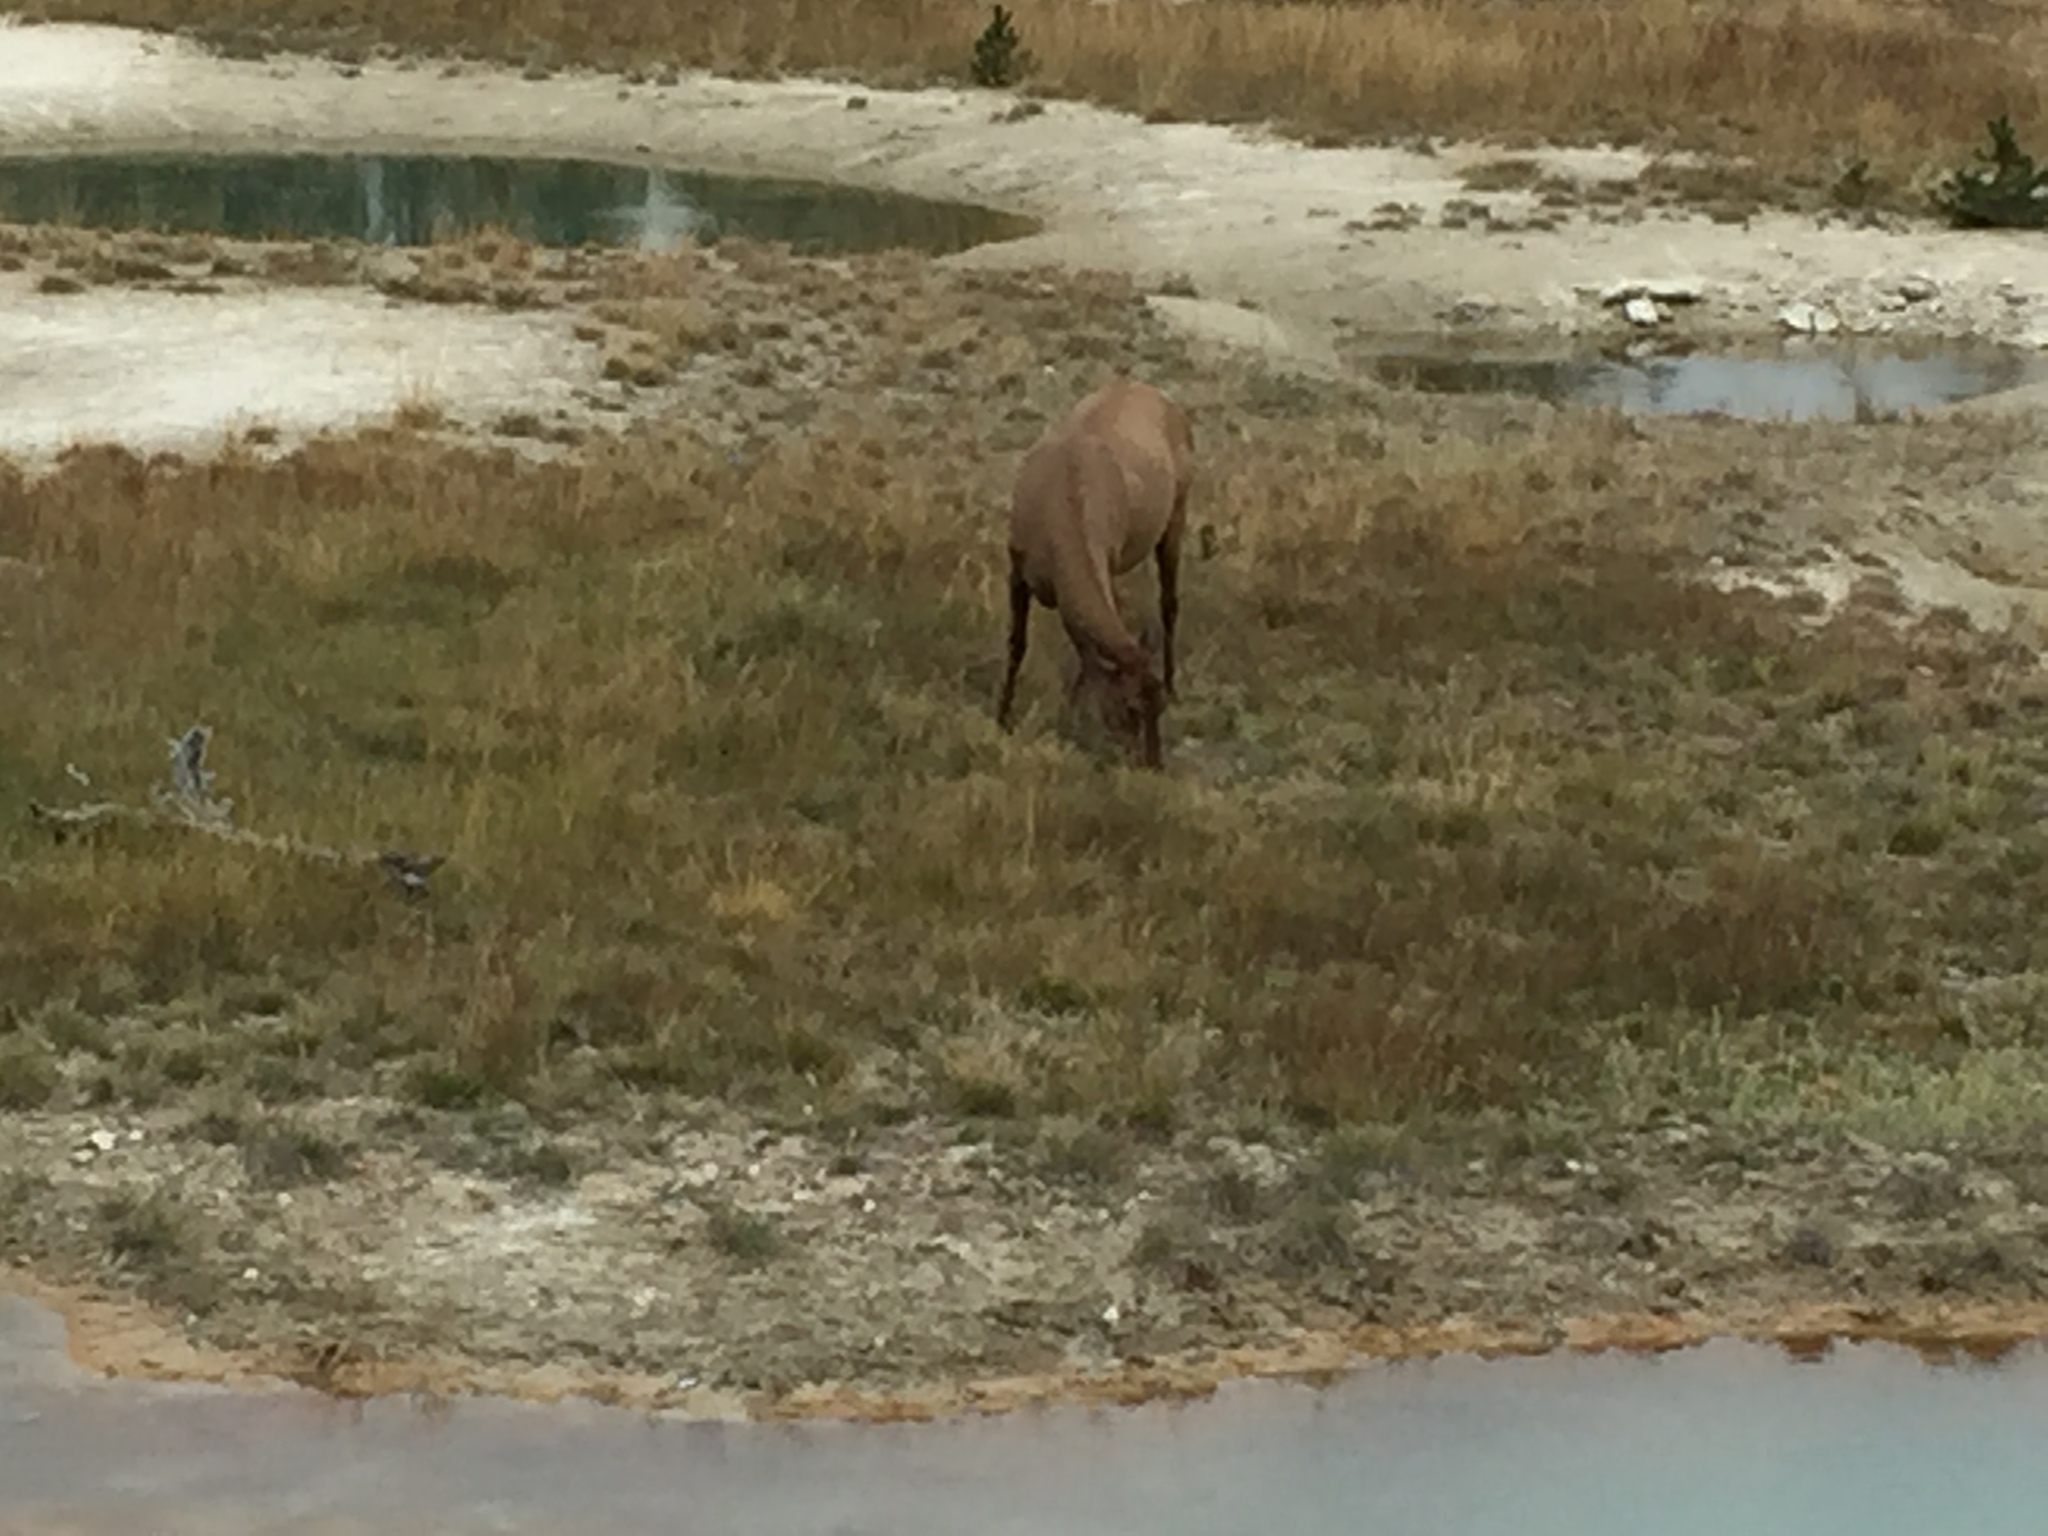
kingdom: Animalia
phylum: Chordata
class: Mammalia
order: Artiodactyla
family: Cervidae
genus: Cervus
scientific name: Cervus elaphus
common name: Red deer
